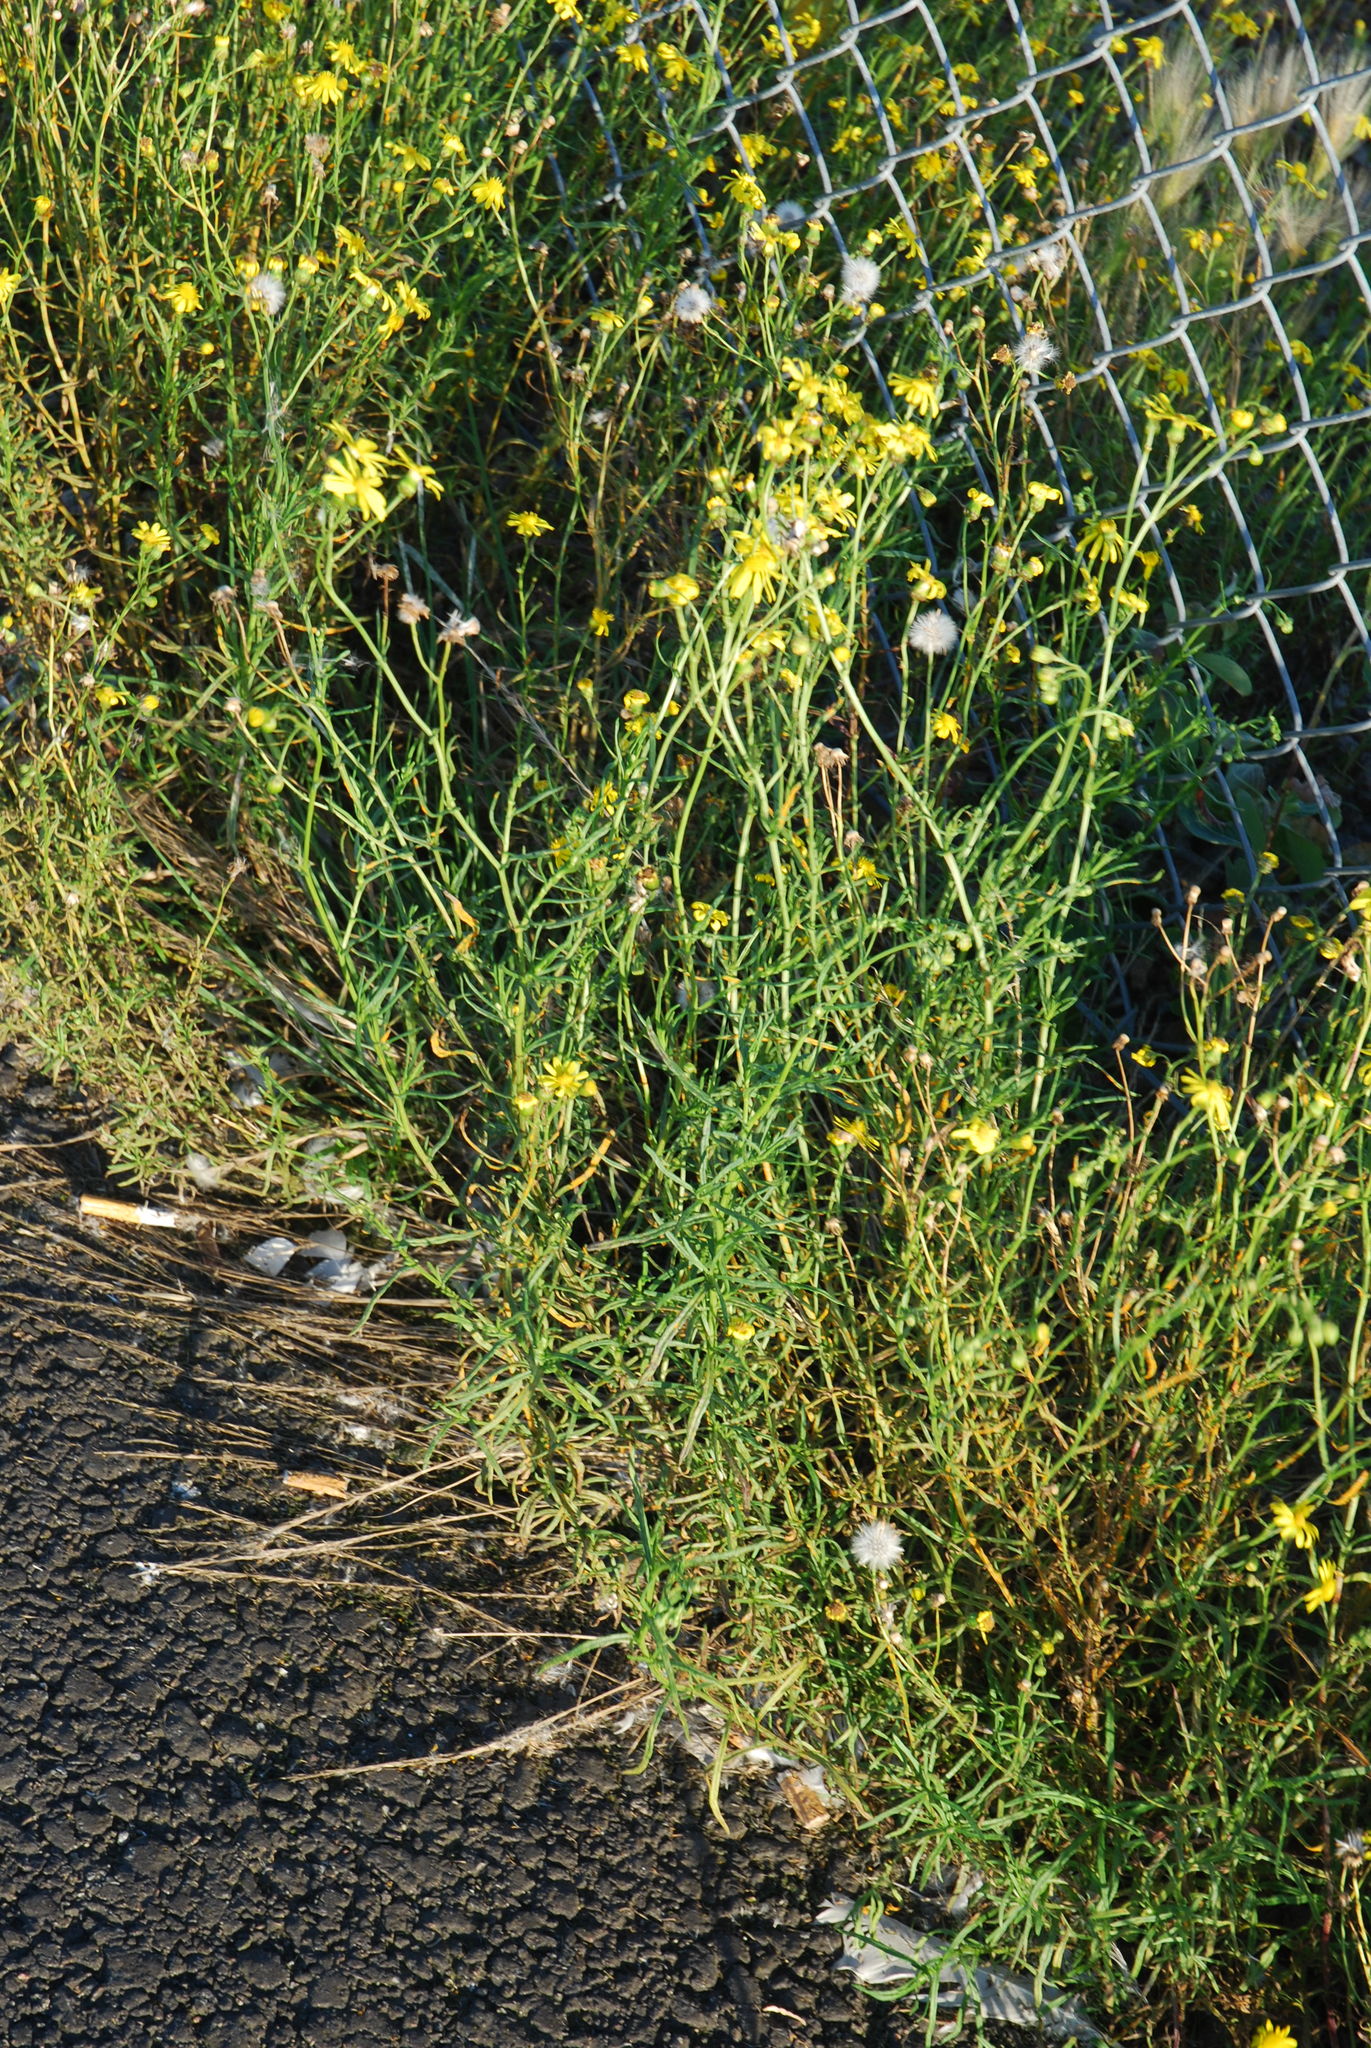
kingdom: Plantae
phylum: Tracheophyta
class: Magnoliopsida
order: Asterales
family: Asteraceae
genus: Senecio
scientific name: Senecio inaequidens
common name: Narrow-leaved ragwort
